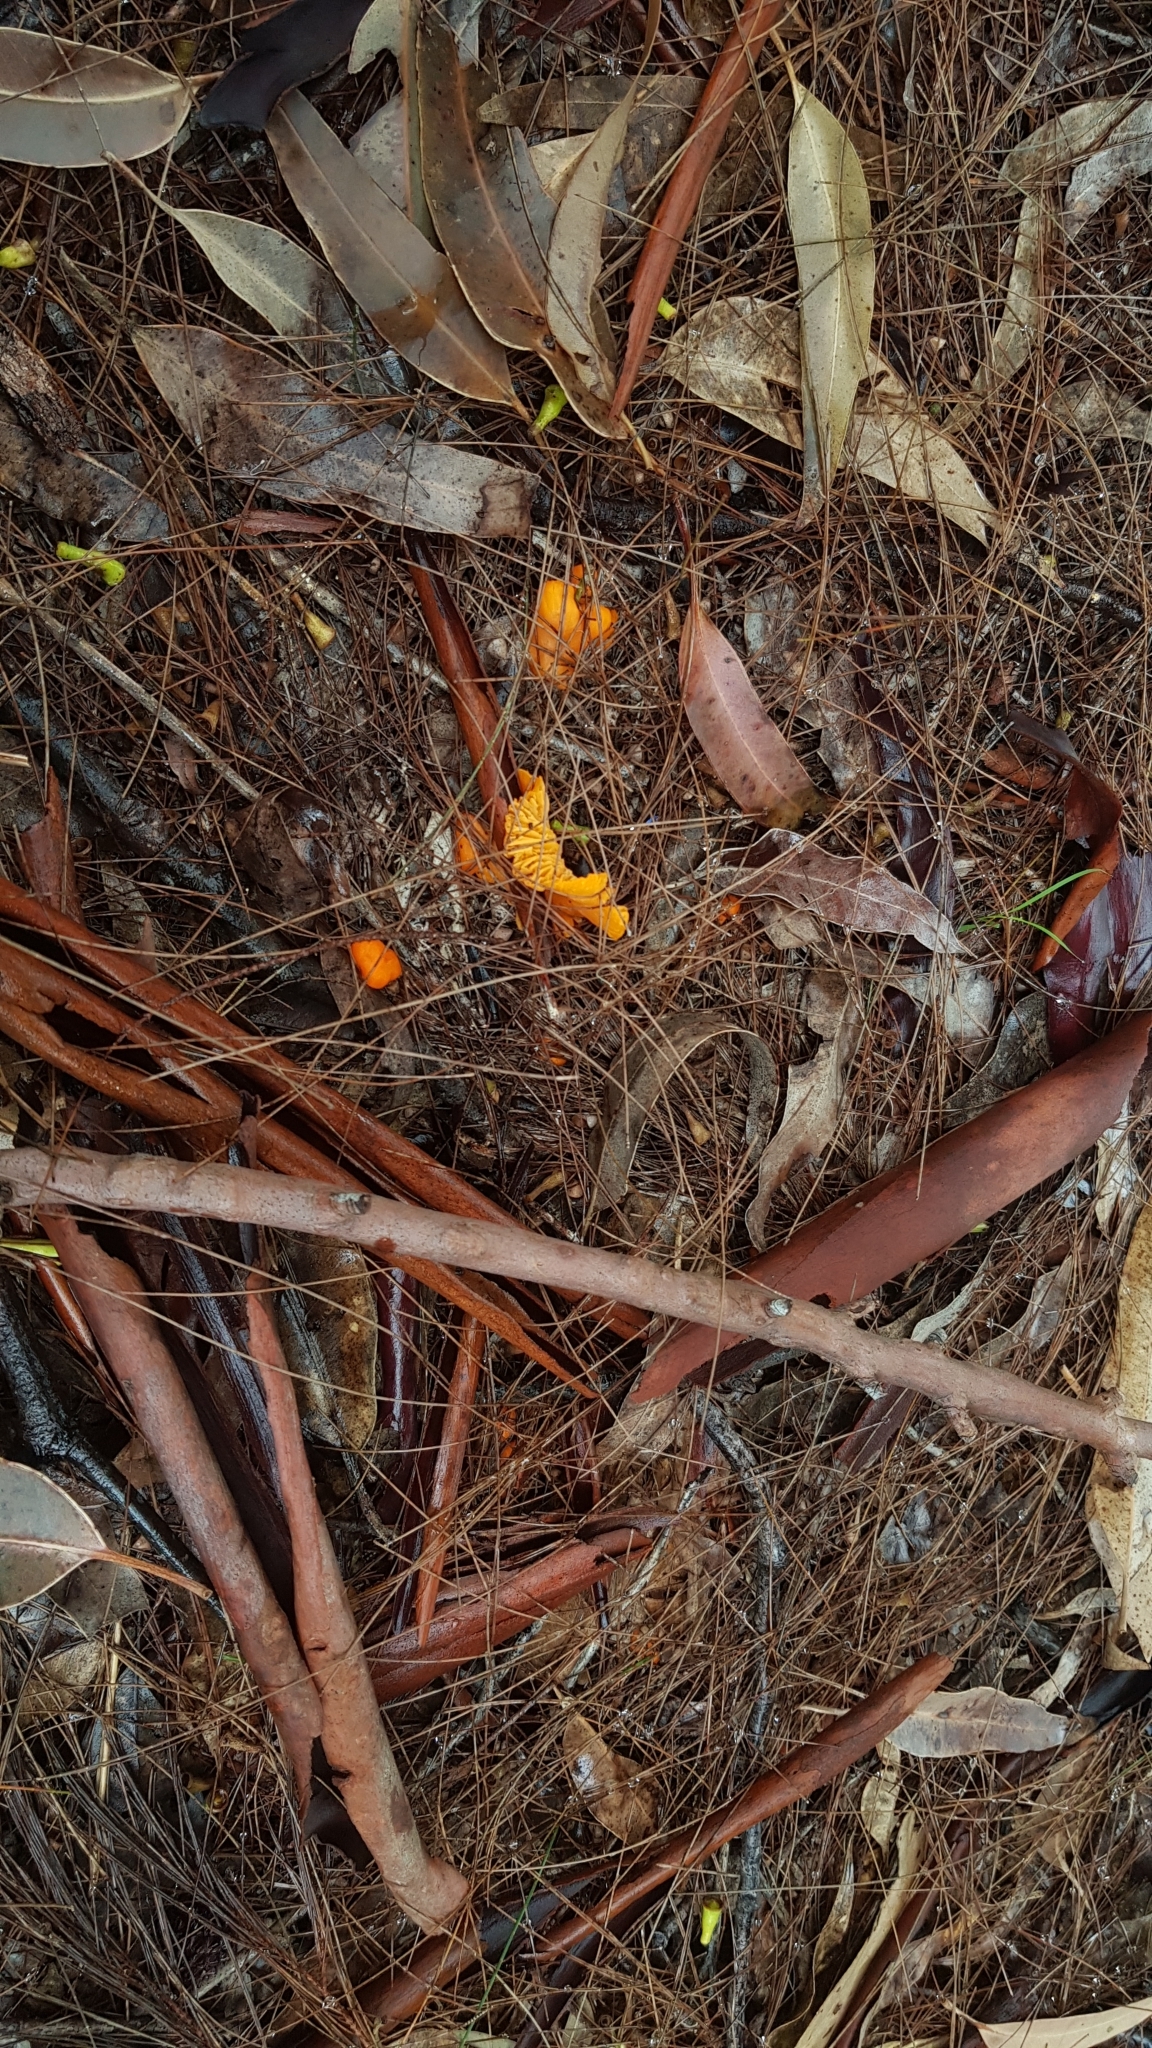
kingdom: Fungi
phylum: Basidiomycota
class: Agaricomycetes
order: Cantharellales
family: Hydnaceae
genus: Cantharellus
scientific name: Cantharellus
